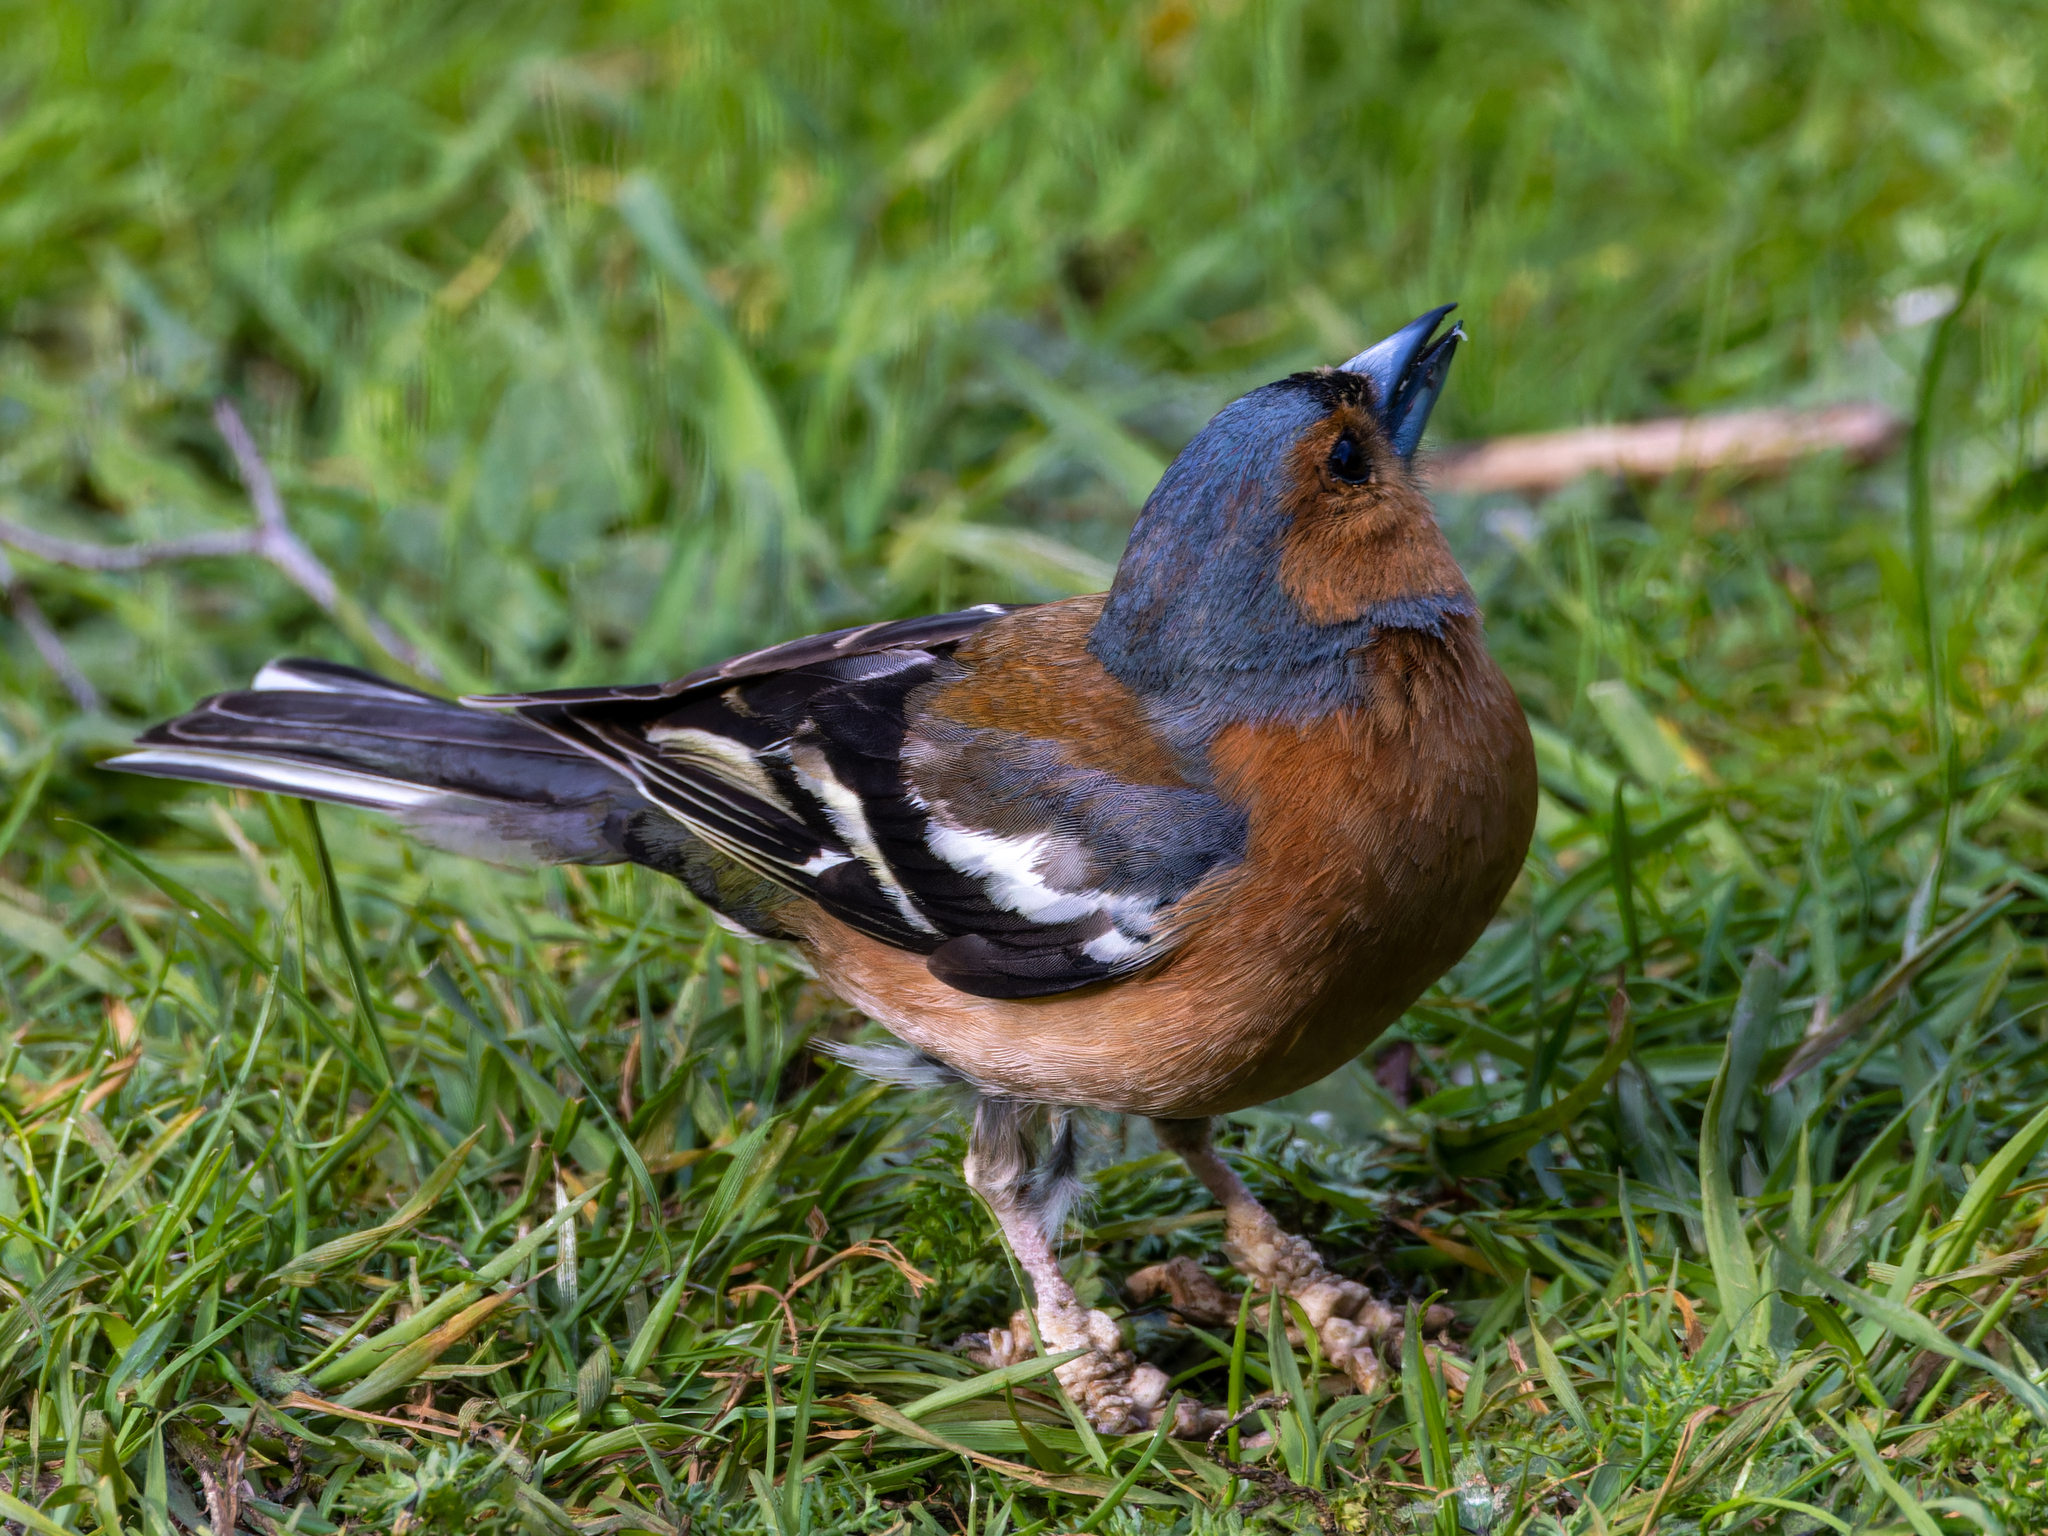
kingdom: Animalia
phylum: Chordata
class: Aves
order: Passeriformes
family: Fringillidae
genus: Fringilla
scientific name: Fringilla coelebs
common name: Common chaffinch
